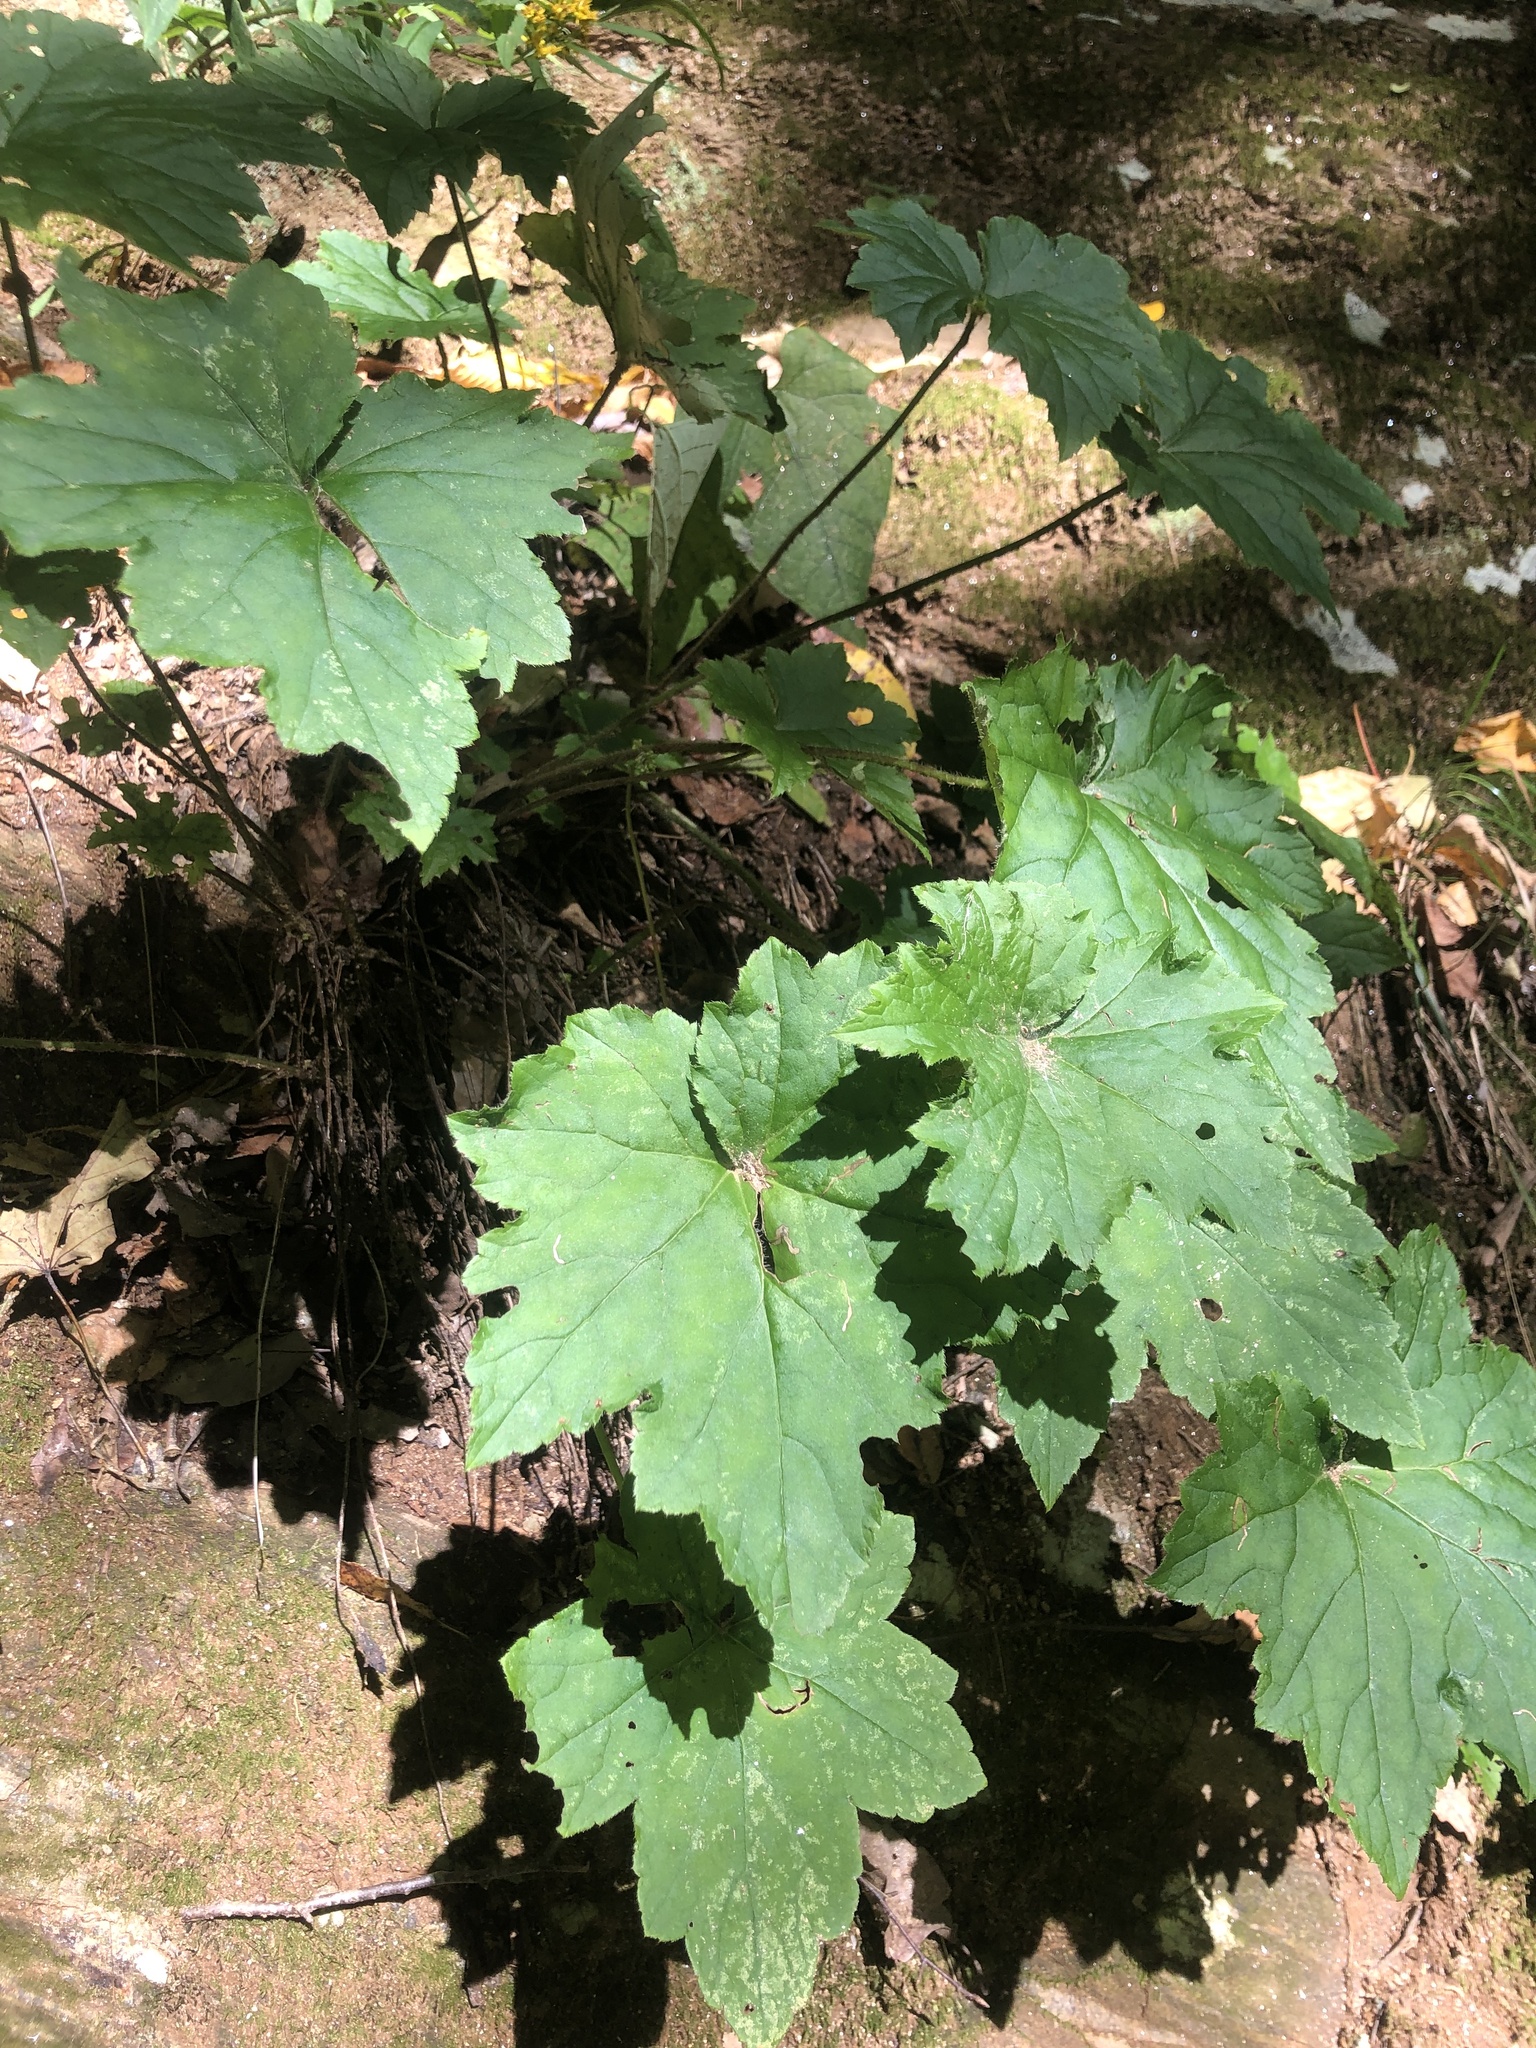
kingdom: Plantae
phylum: Tracheophyta
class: Magnoliopsida
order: Saxifragales
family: Saxifragaceae
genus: Heuchera
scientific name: Heuchera villosa
